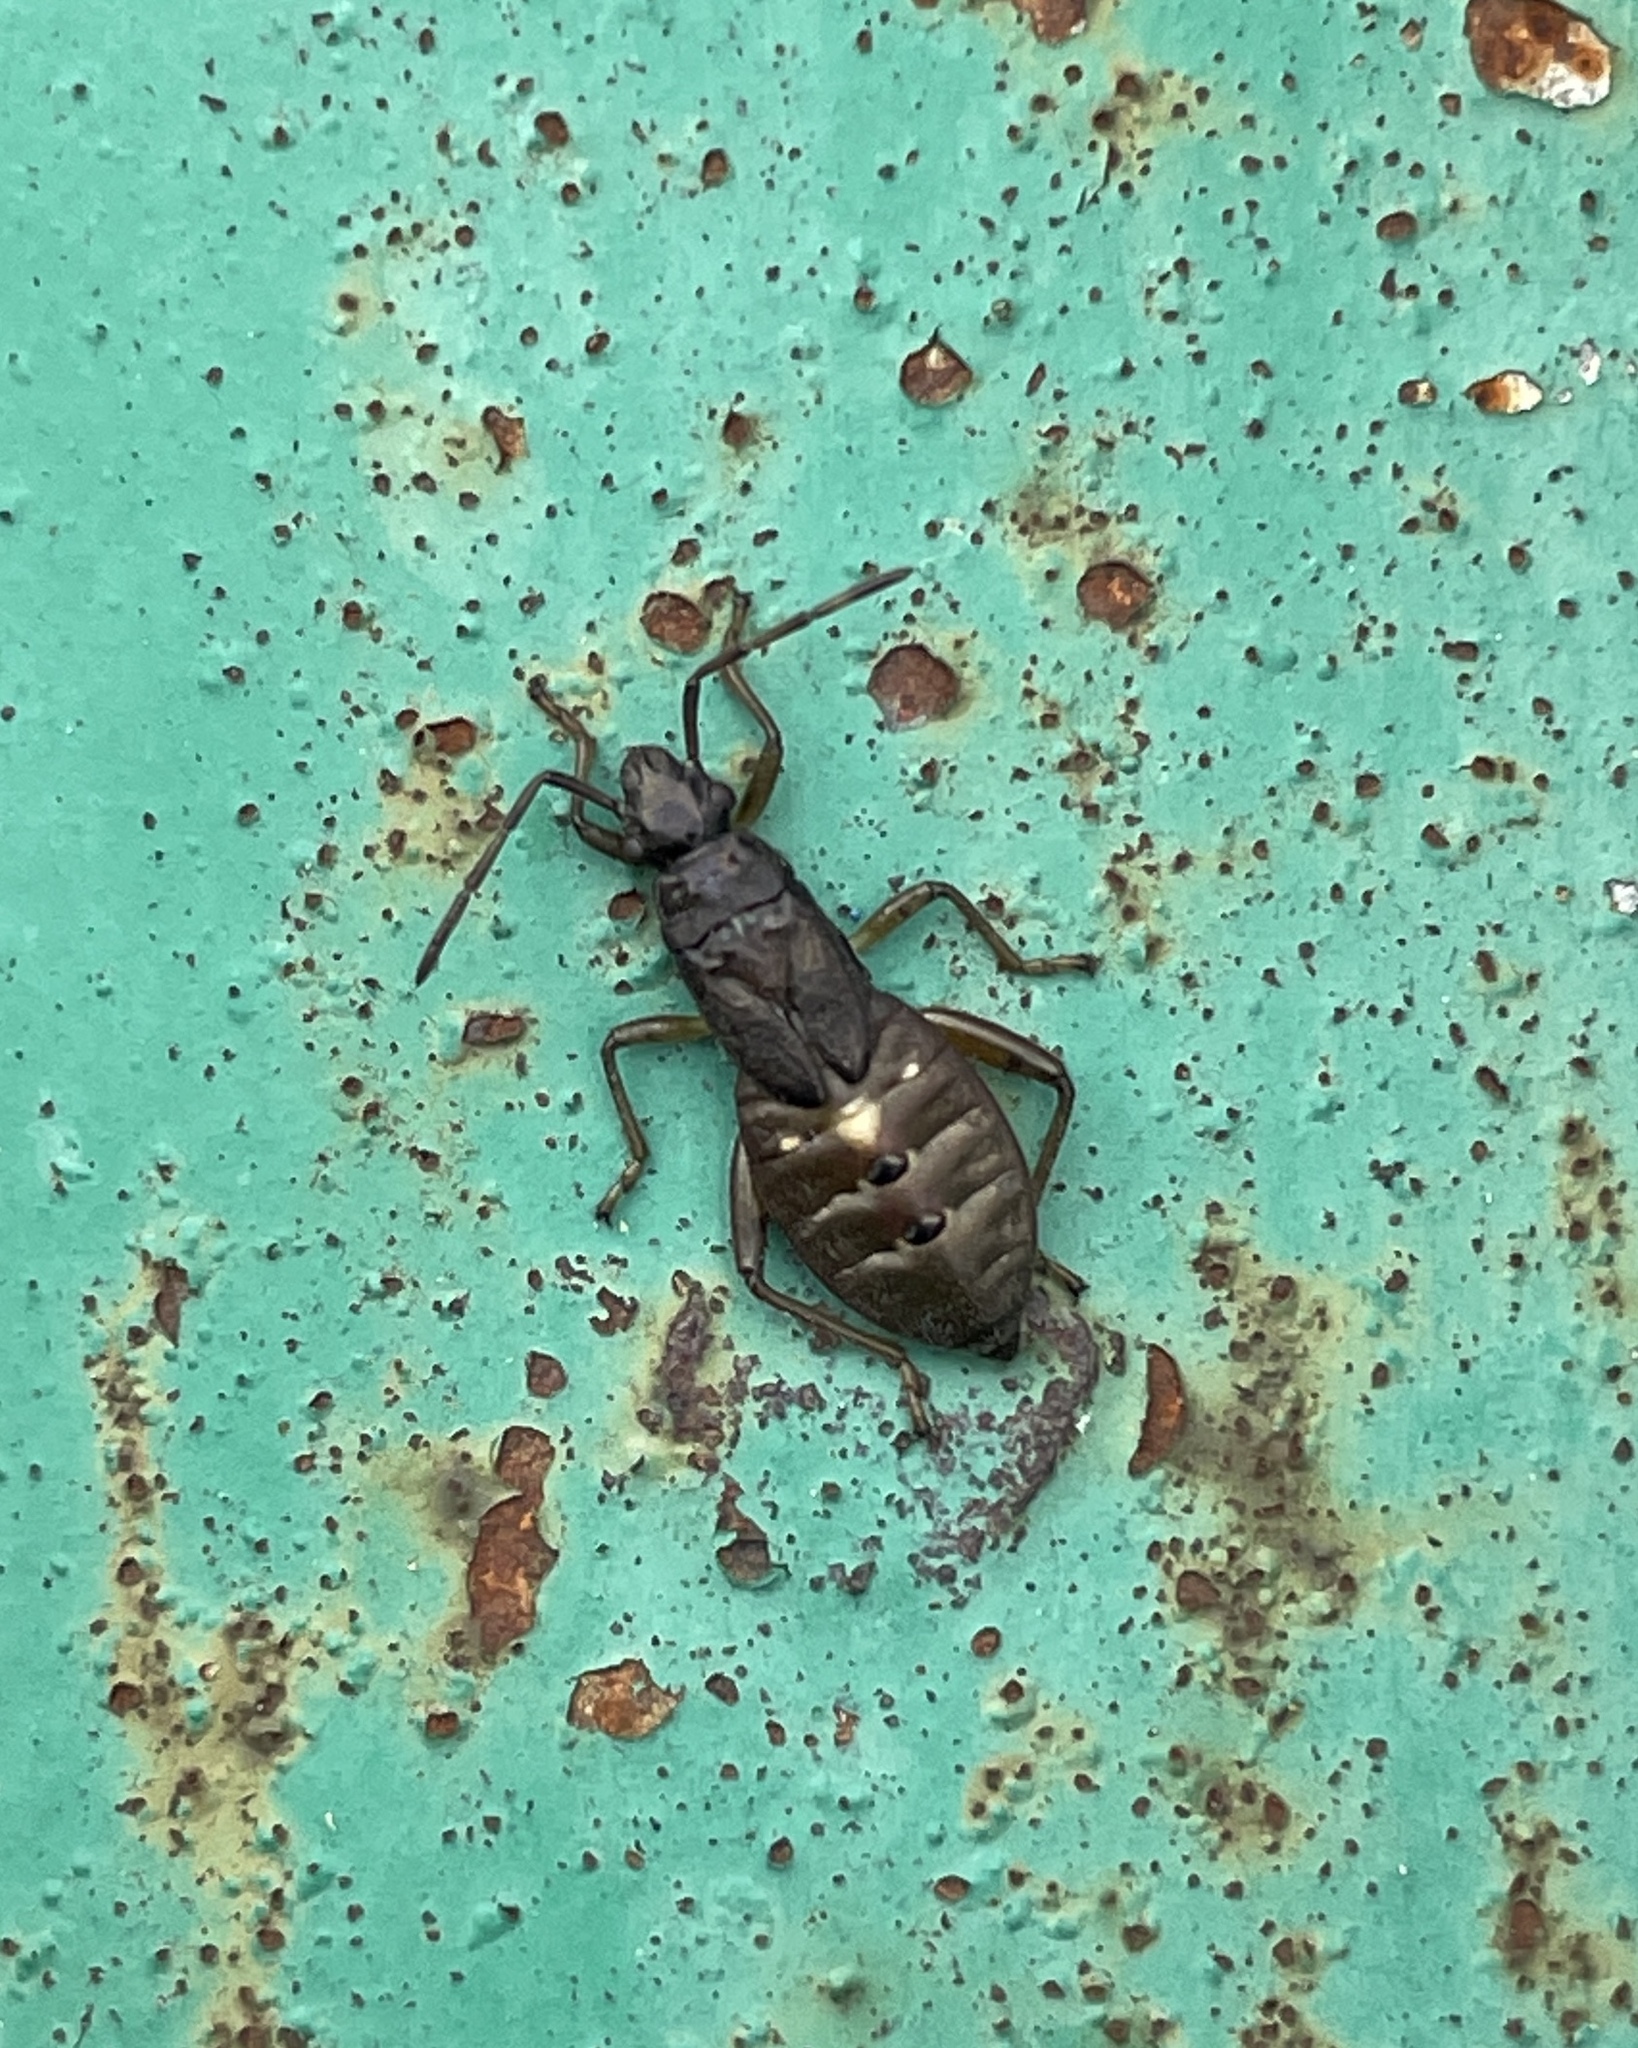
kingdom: Animalia
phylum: Arthropoda
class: Insecta
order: Hemiptera
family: Alydidae
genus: Daclera
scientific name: Daclera levana
